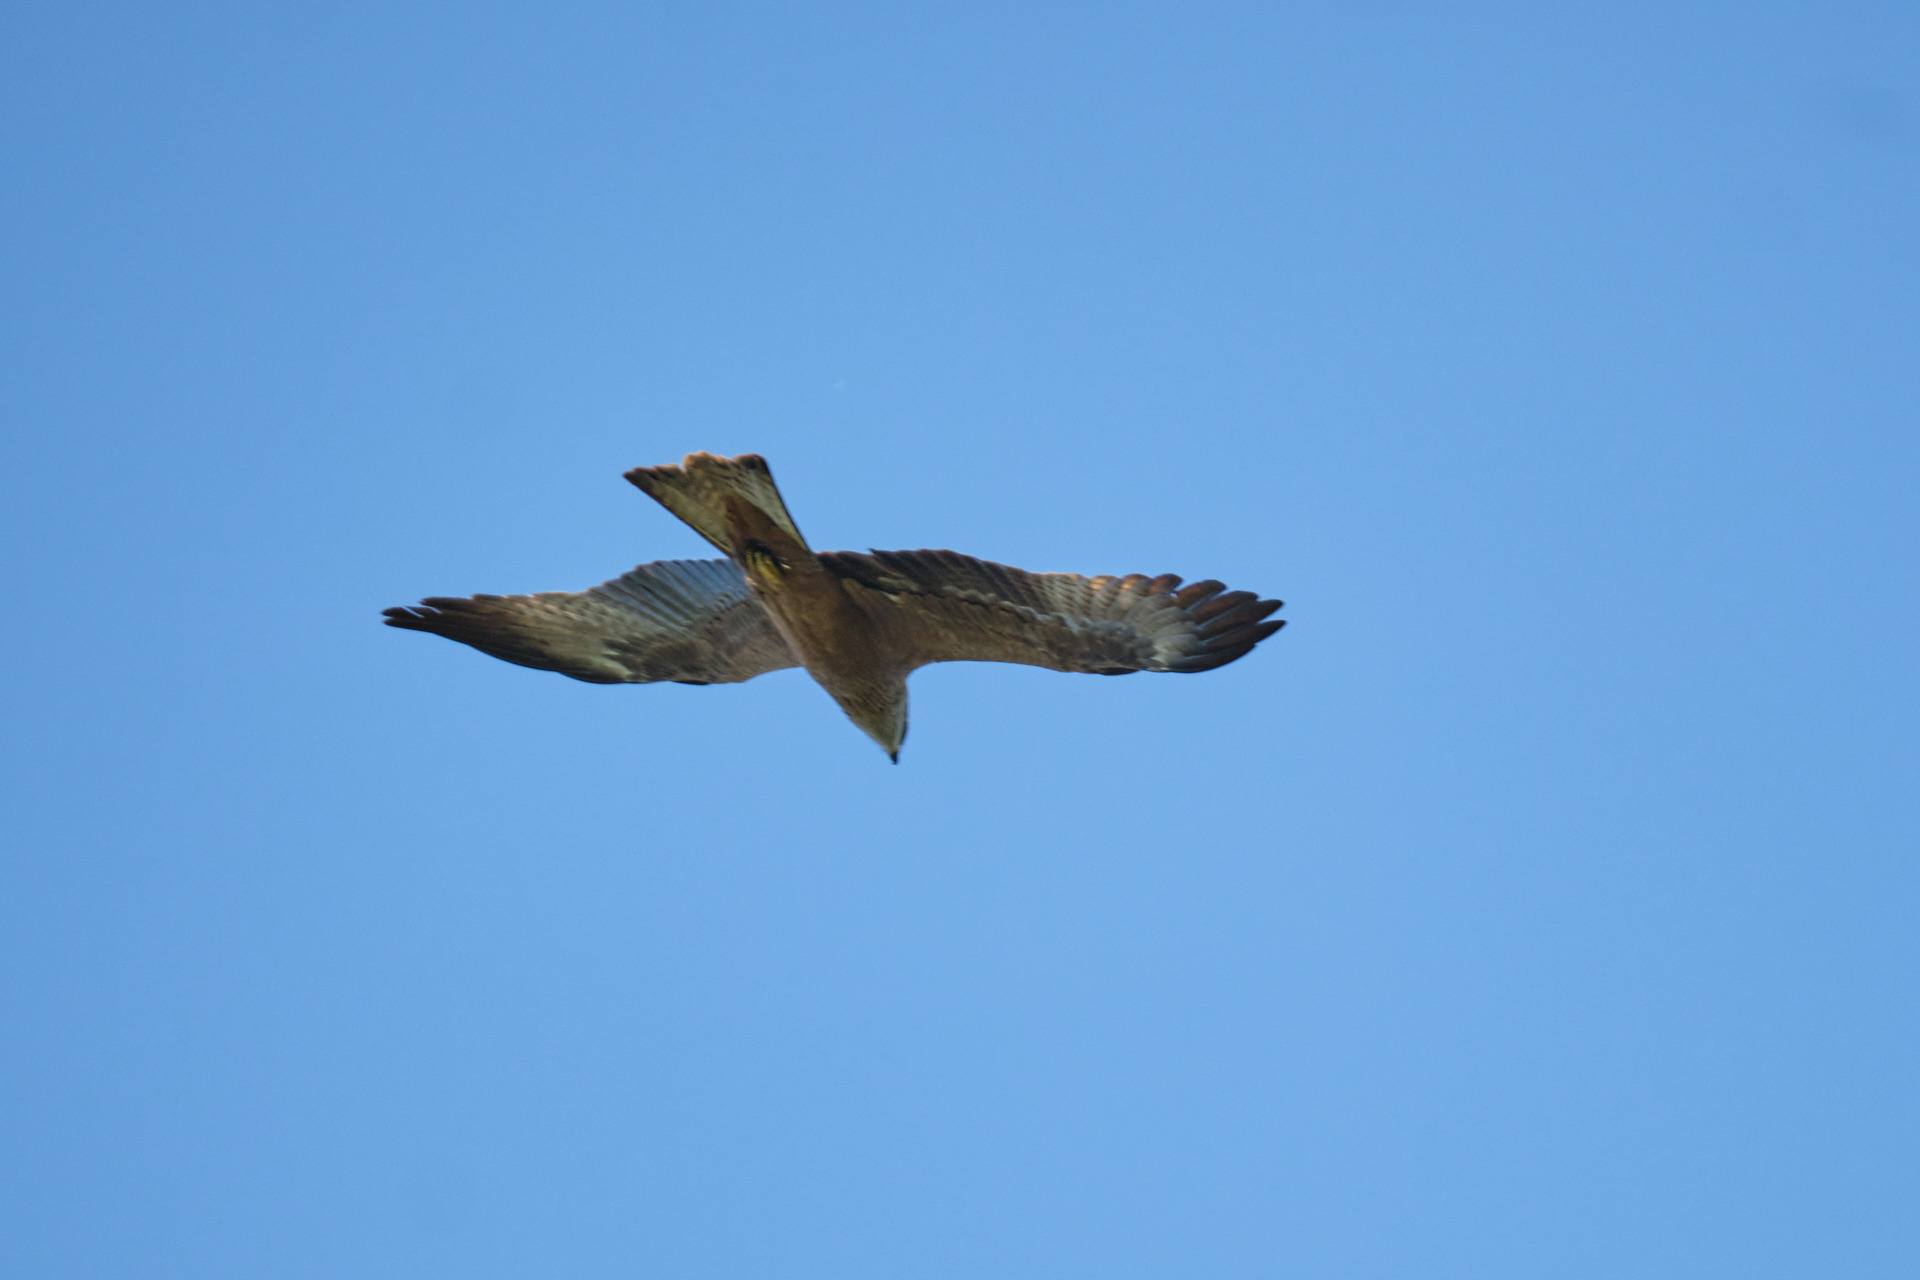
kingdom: Animalia
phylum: Chordata
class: Aves
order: Accipitriformes
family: Accipitridae
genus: Milvus
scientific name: Milvus milvus
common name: Red kite
